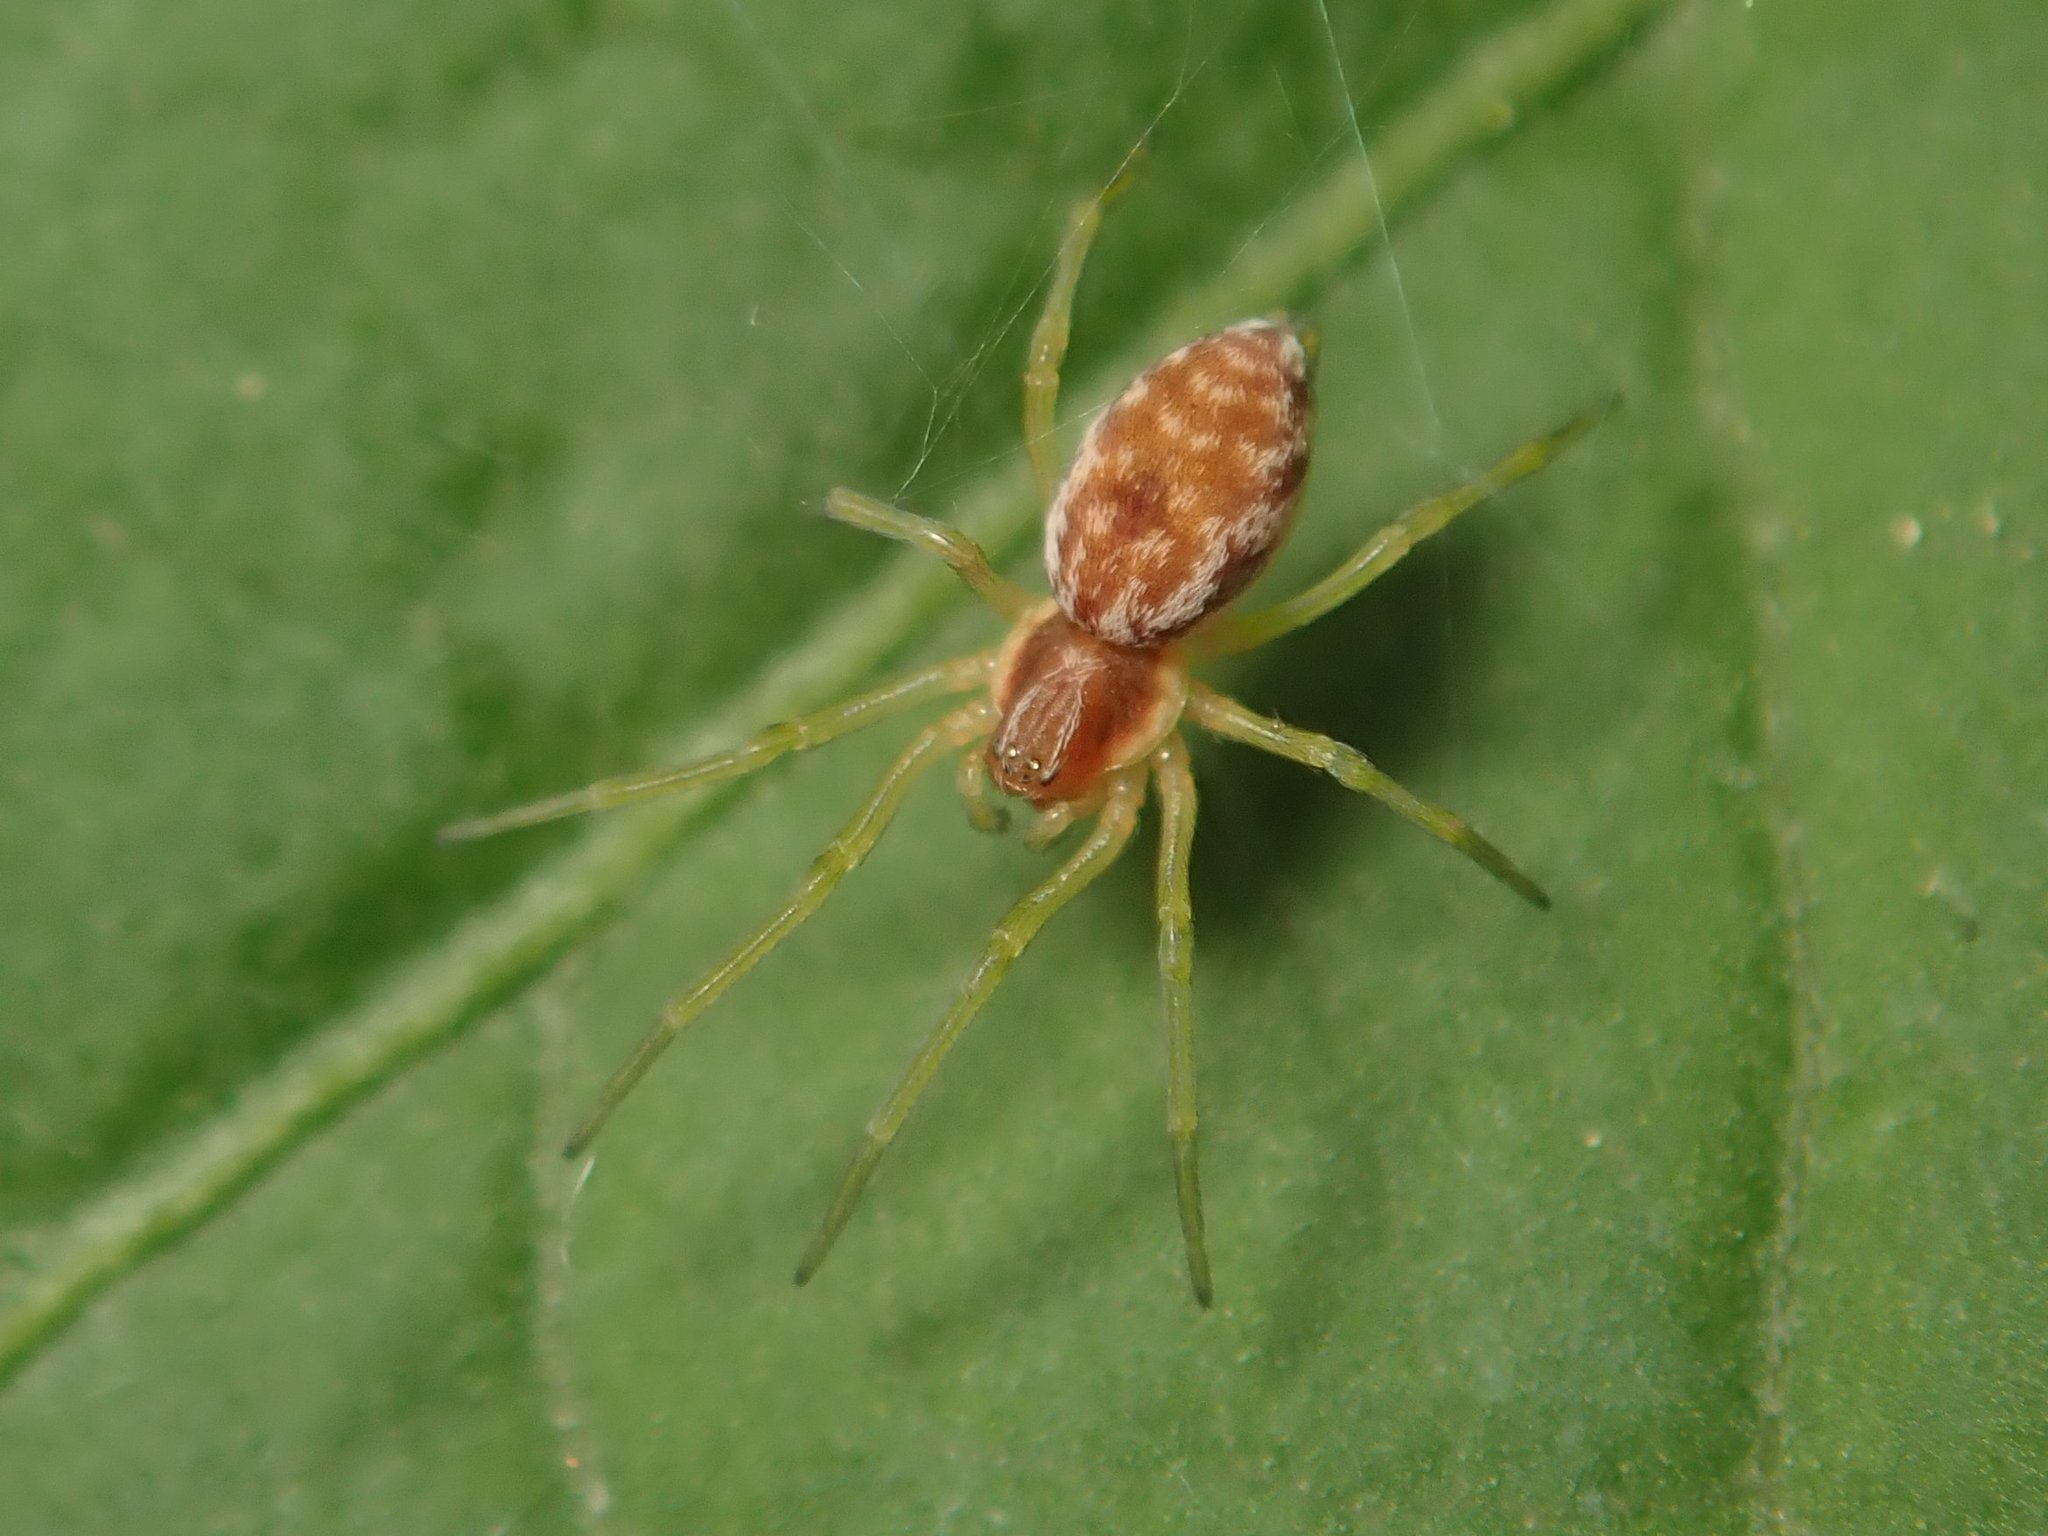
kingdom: Animalia
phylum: Arthropoda
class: Arachnida
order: Araneae
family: Dictynidae
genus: Nigma
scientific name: Nigma flavescens
